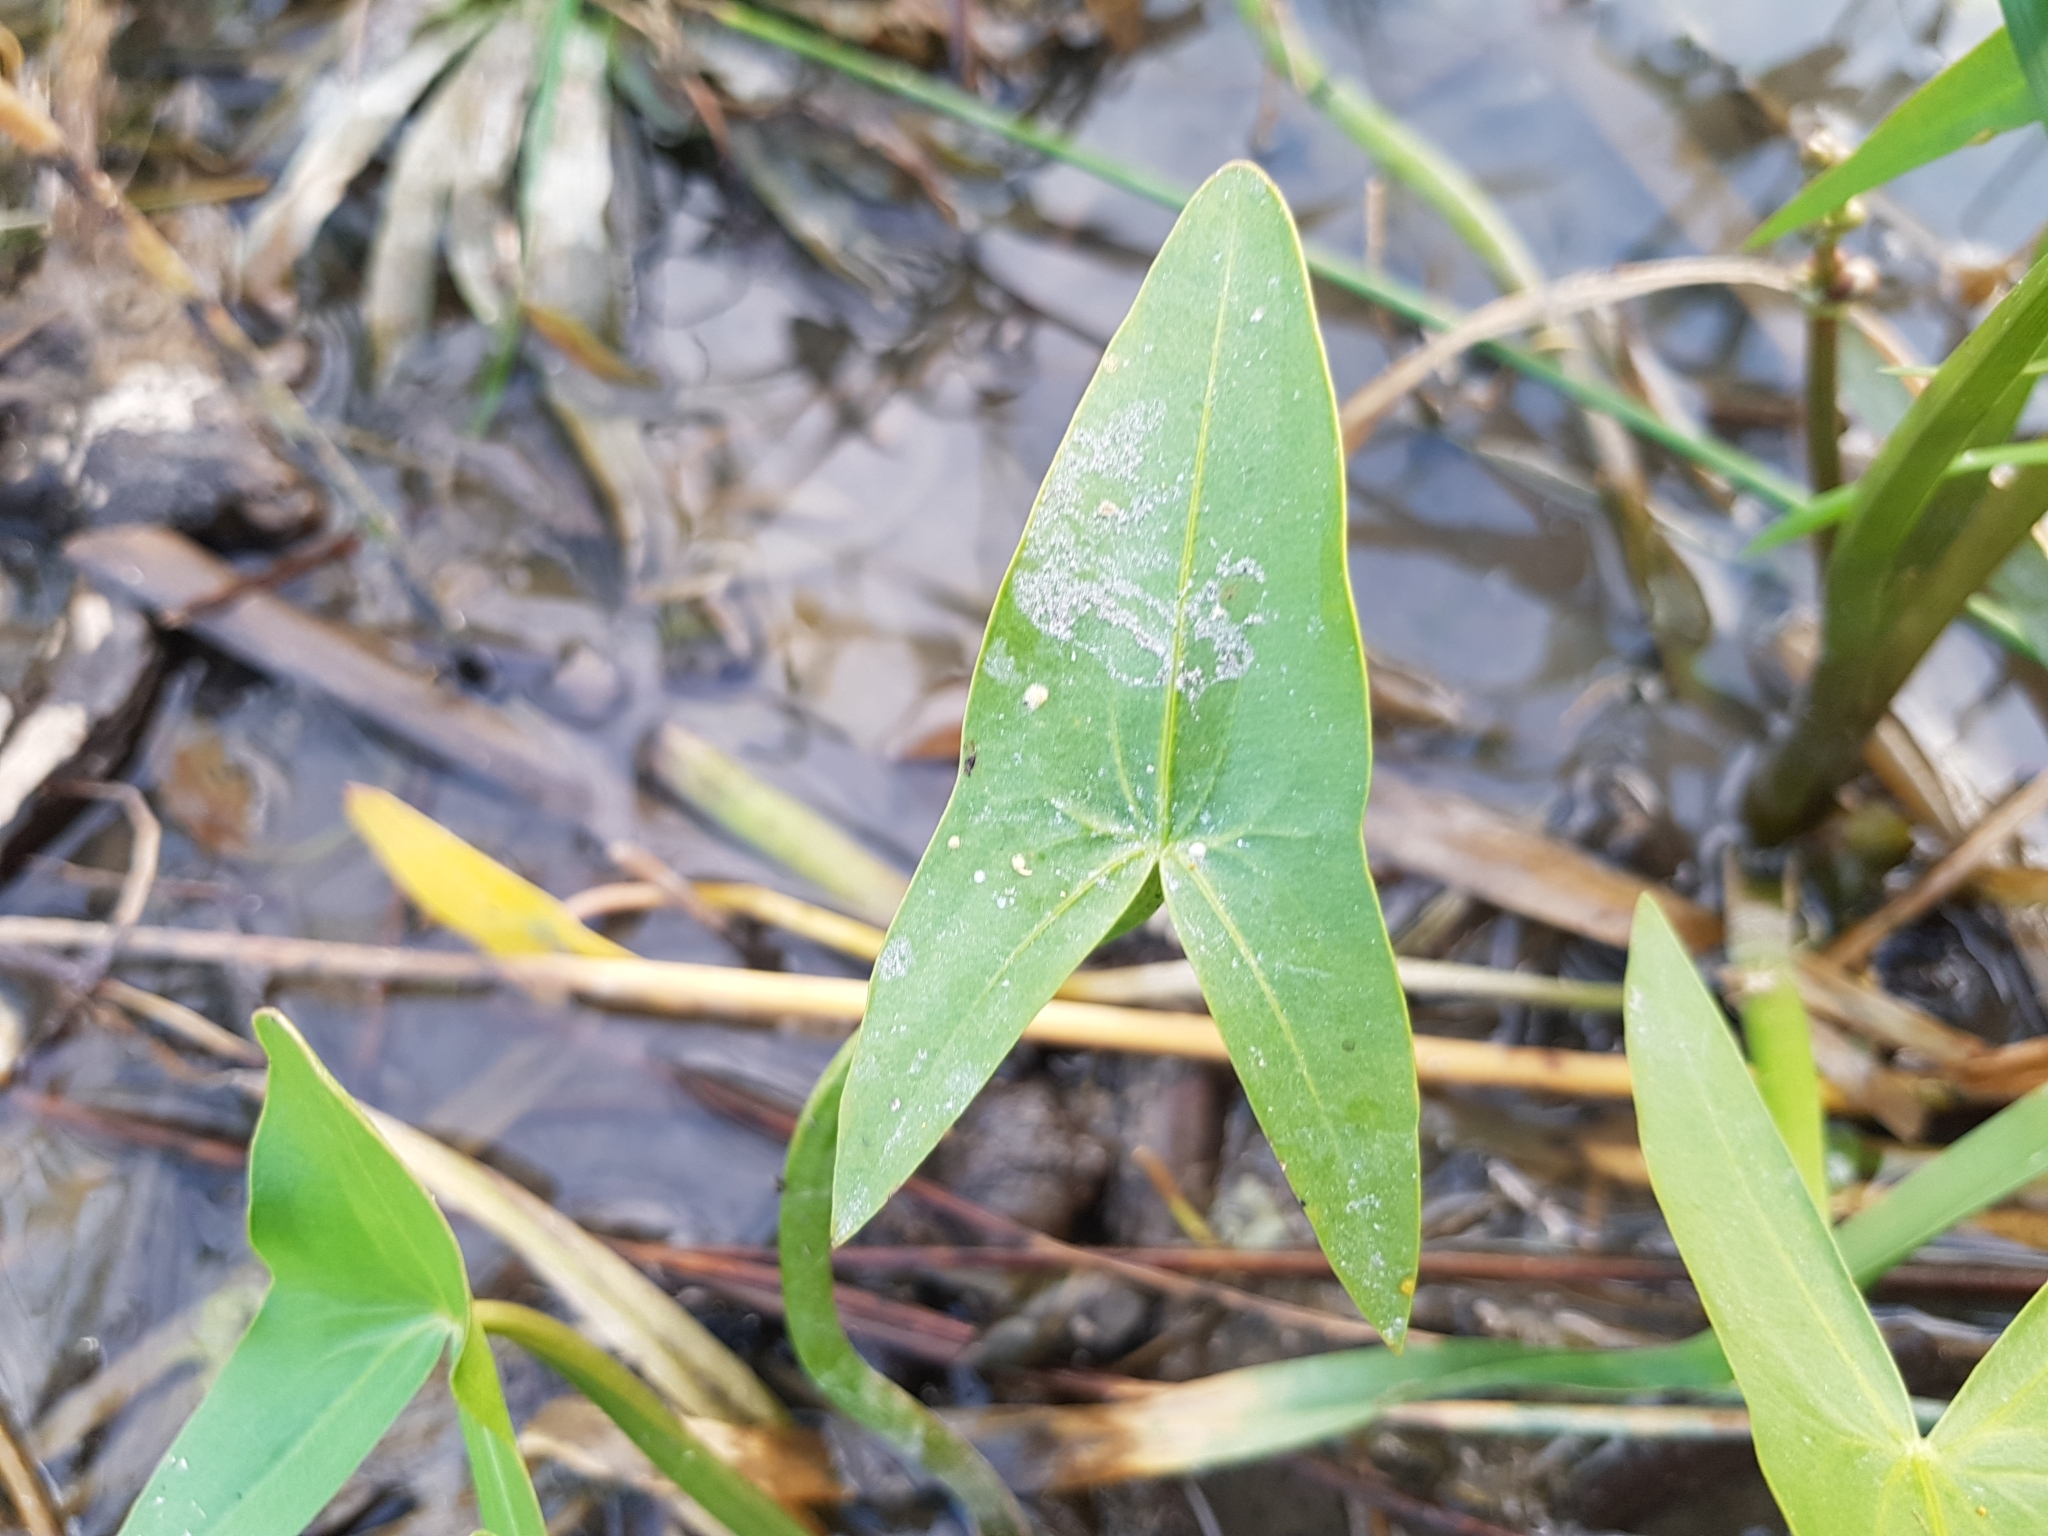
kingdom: Plantae
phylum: Tracheophyta
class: Liliopsida
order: Alismatales
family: Alismataceae
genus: Sagittaria
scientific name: Sagittaria sagittifolia
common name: Arrowhead
